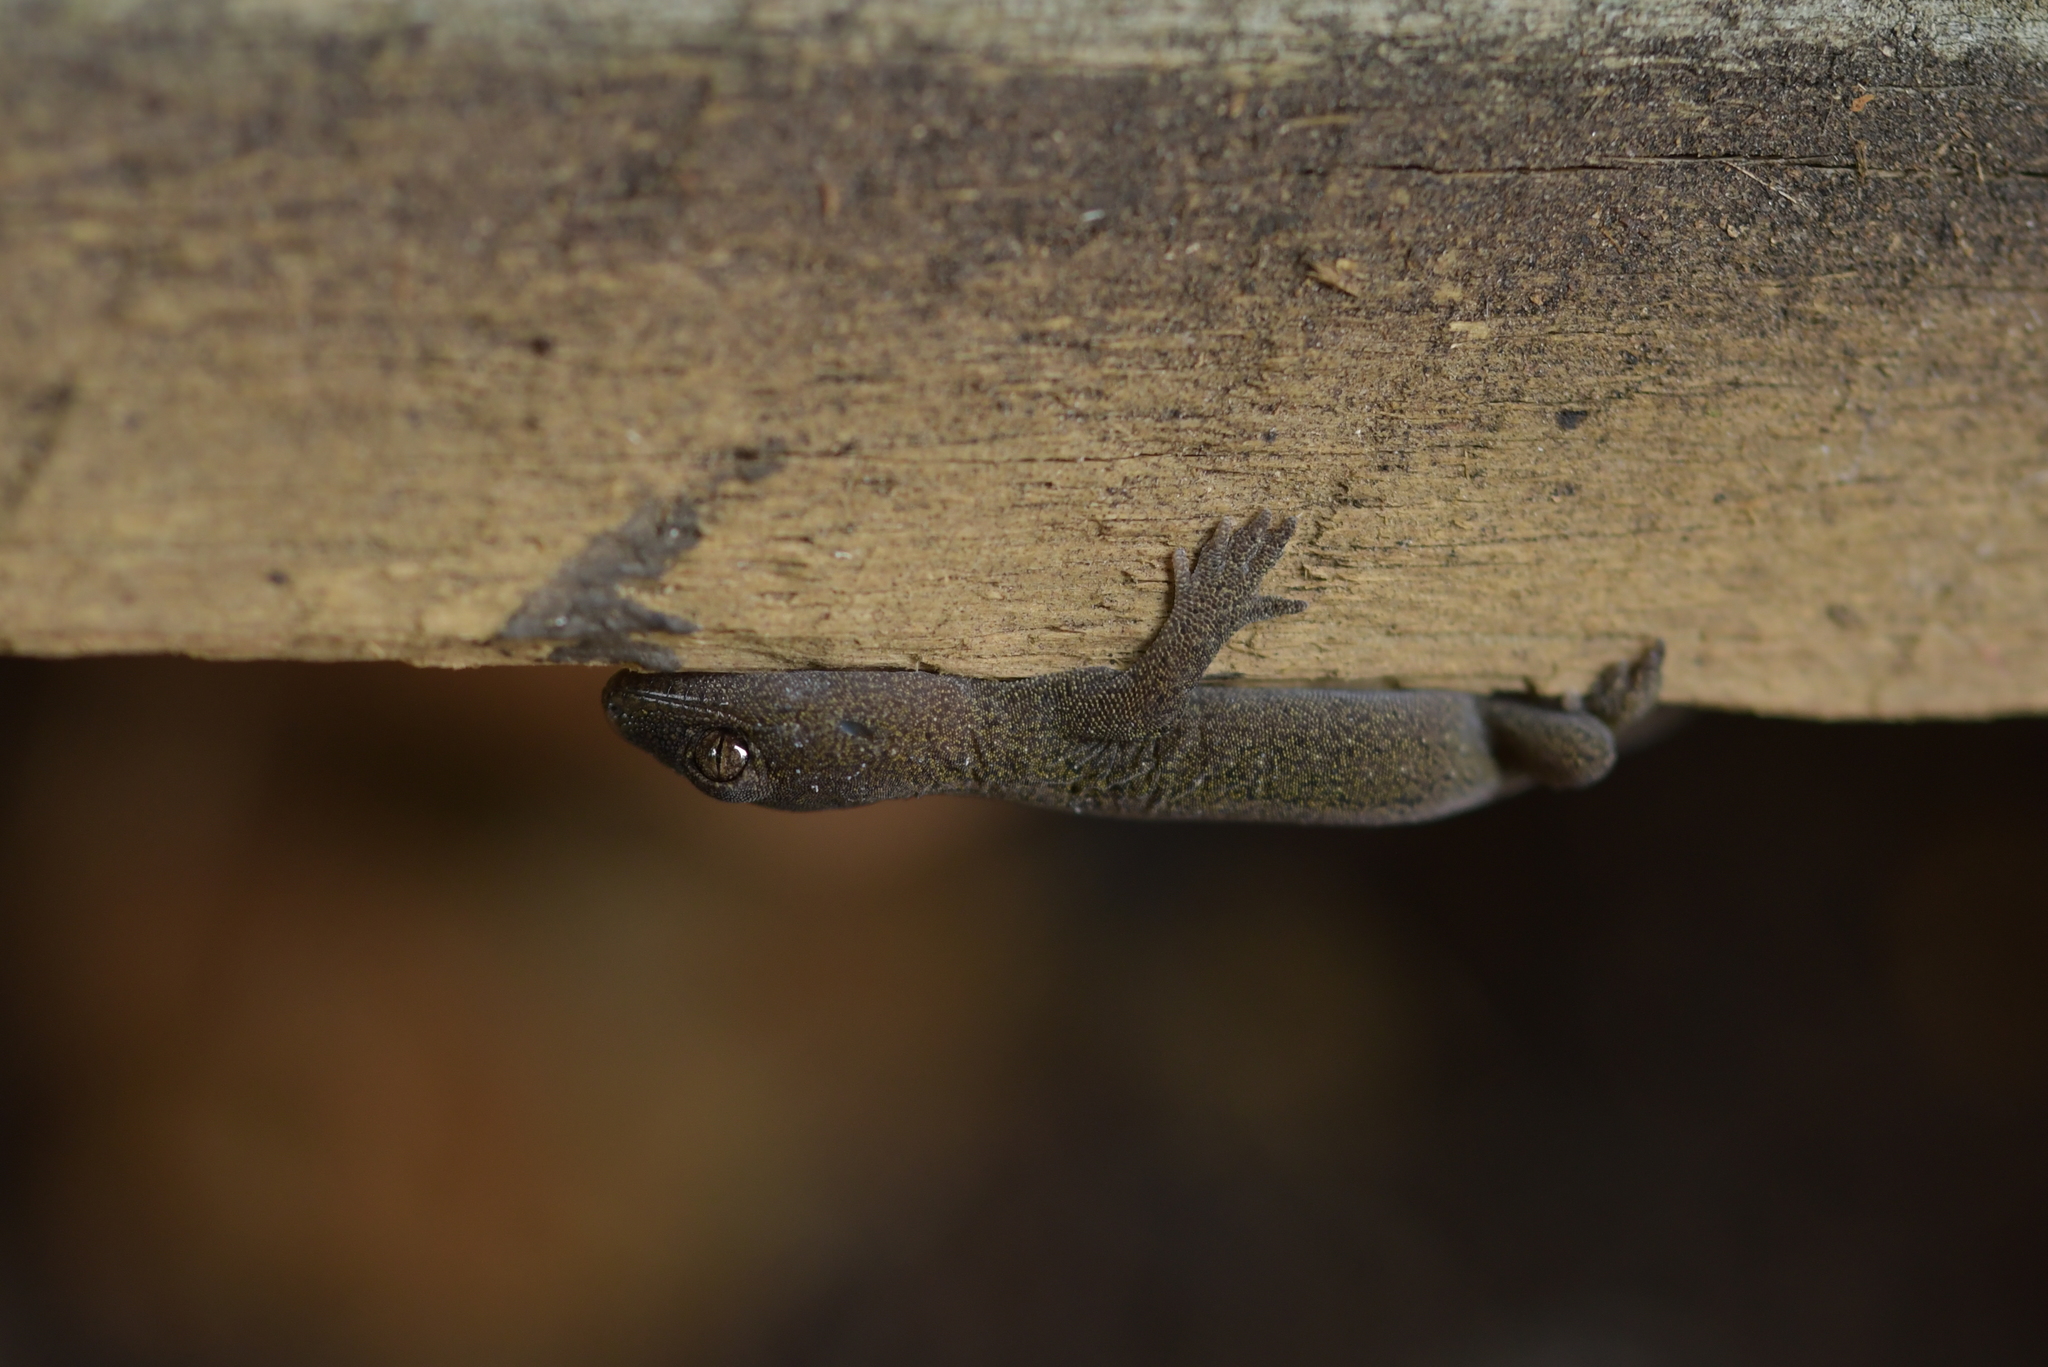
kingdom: Animalia
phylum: Chordata
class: Squamata
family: Diplodactylidae
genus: Woodworthia
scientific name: Woodworthia maculata
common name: Raukawa gecko
